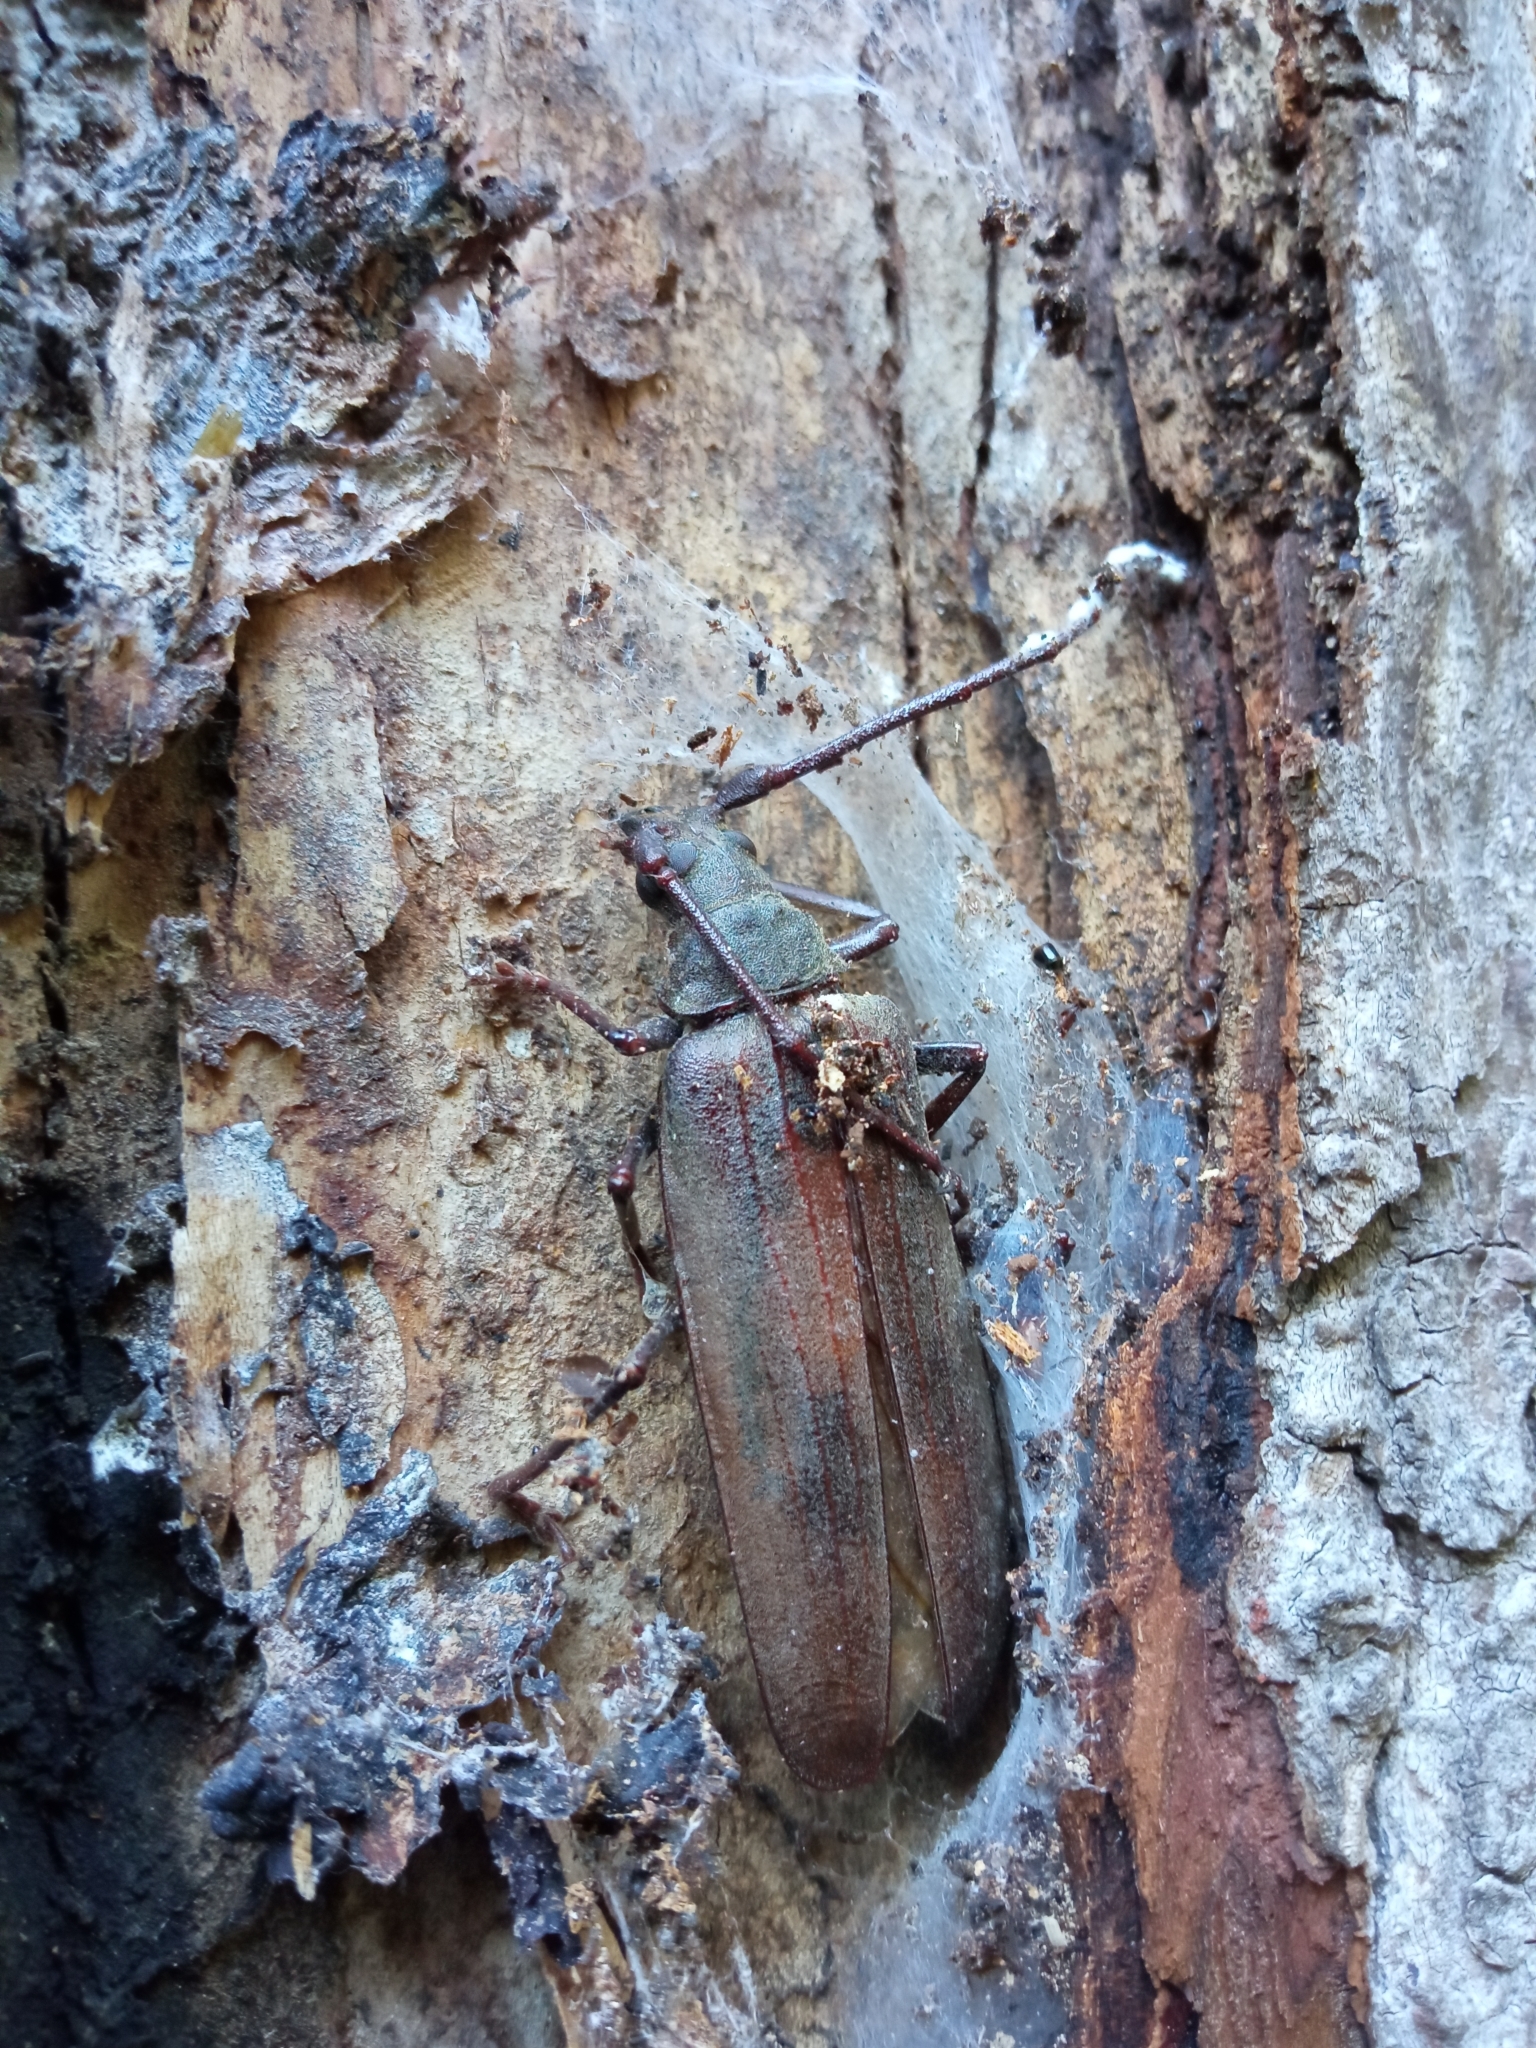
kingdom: Animalia
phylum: Arthropoda
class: Insecta
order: Coleoptera
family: Cerambycidae
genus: Aegosoma
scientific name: Aegosoma scabricorne
